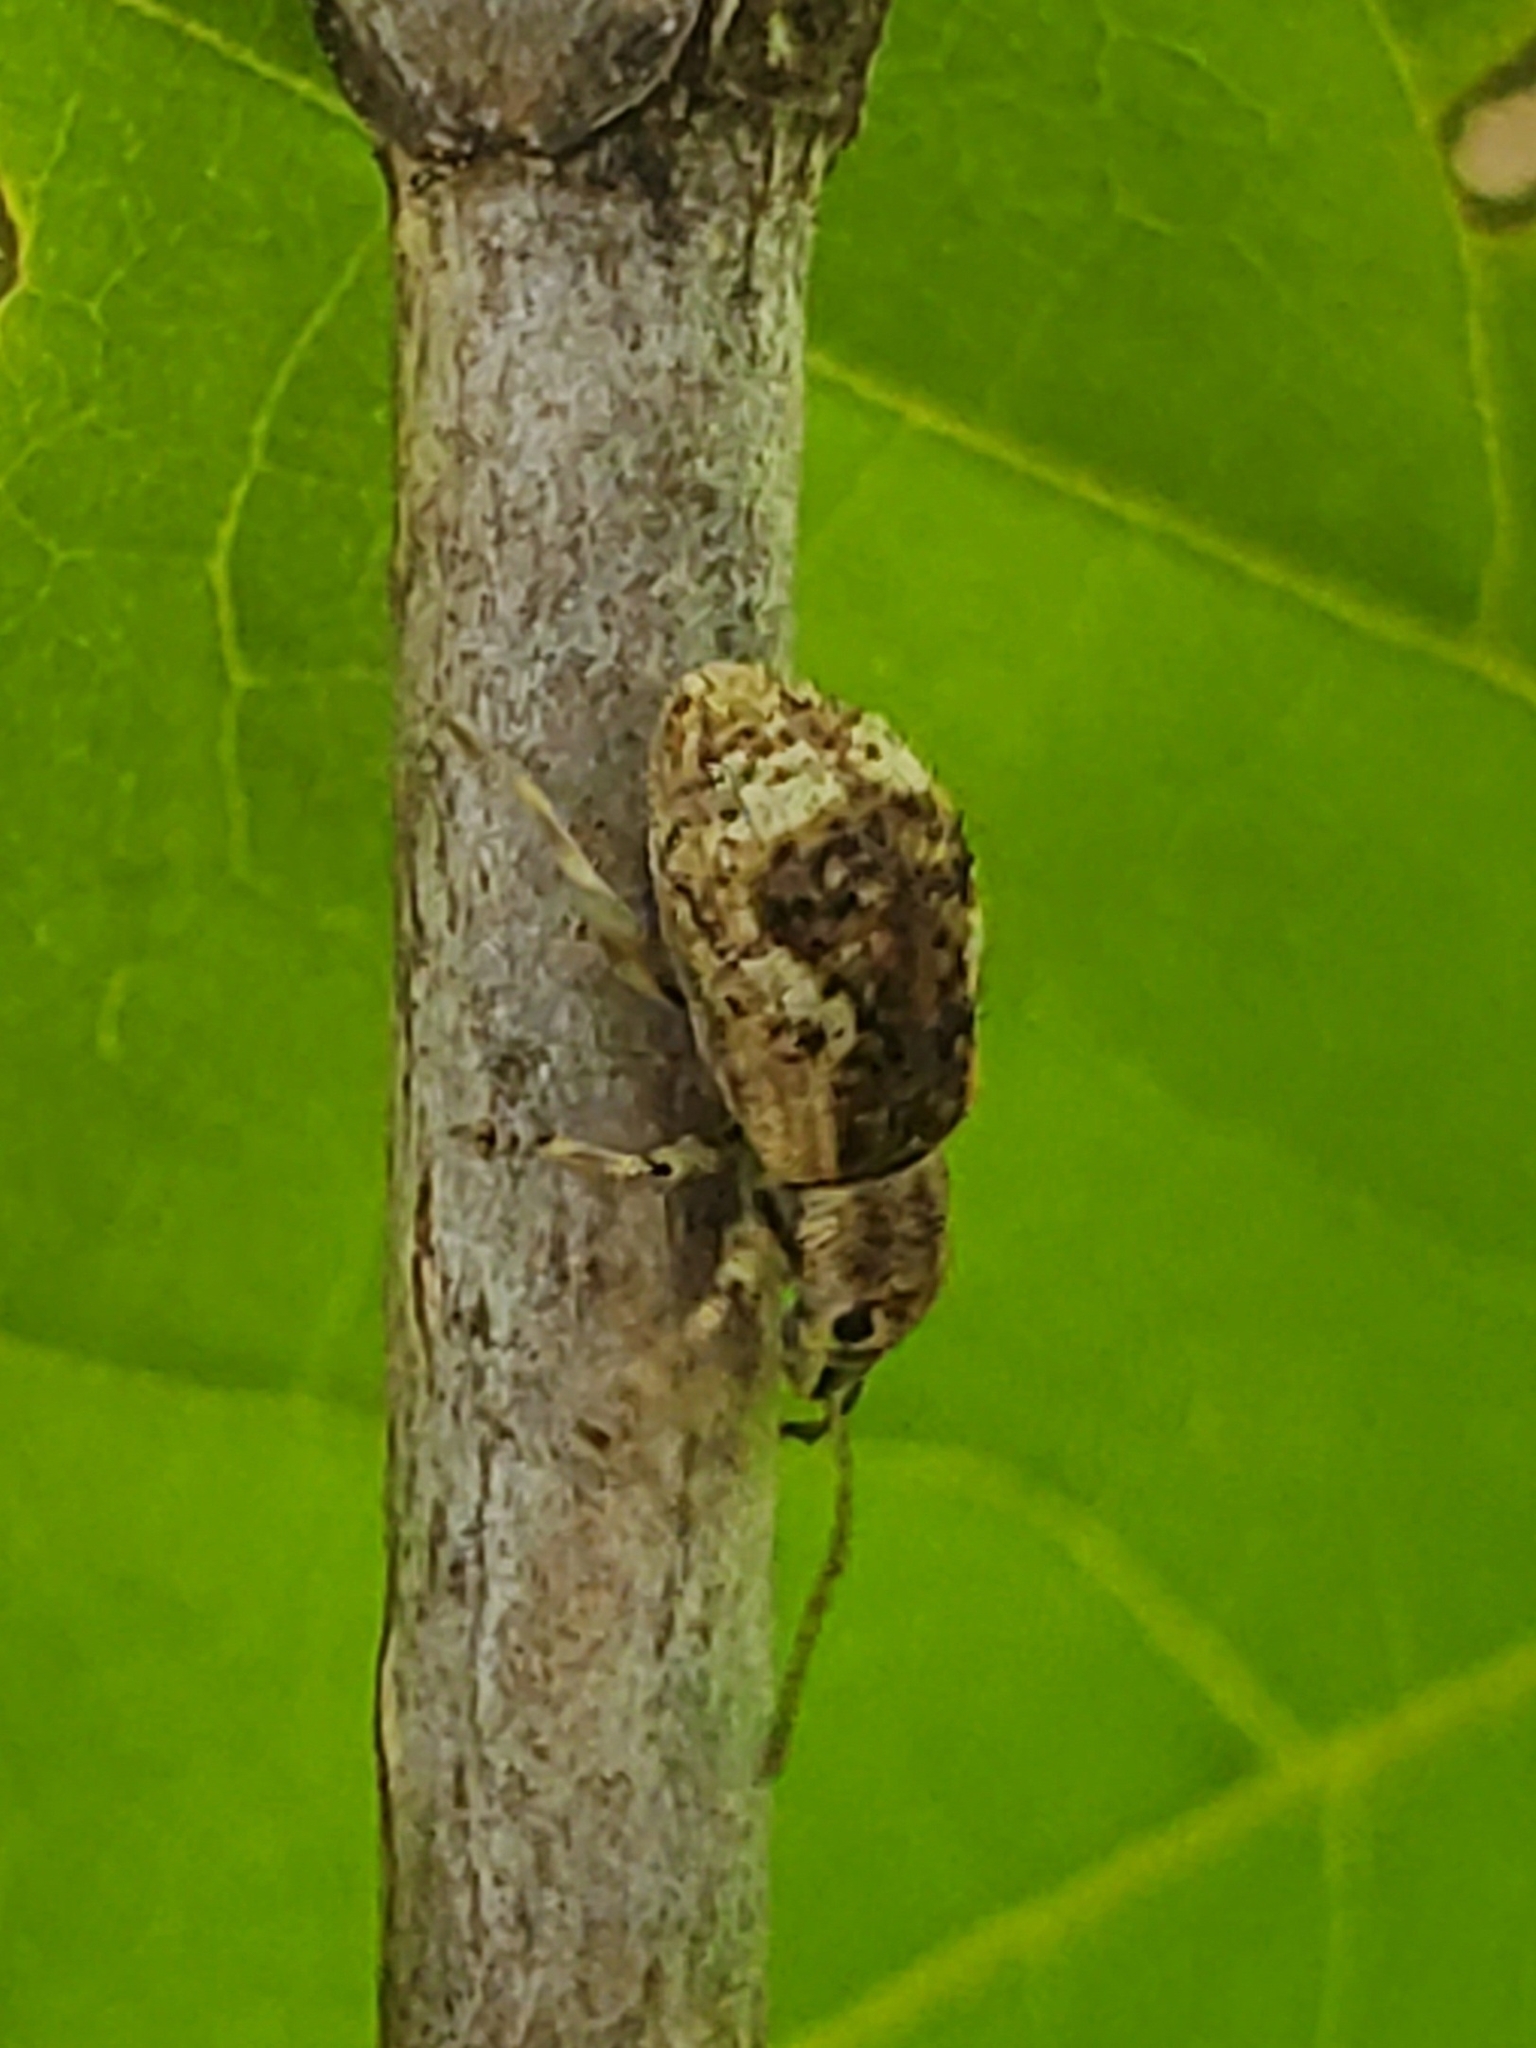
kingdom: Animalia
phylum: Arthropoda
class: Insecta
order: Coleoptera
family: Curculionidae
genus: Pseudoedophrys
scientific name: Pseudoedophrys hilleri
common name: Weevil
